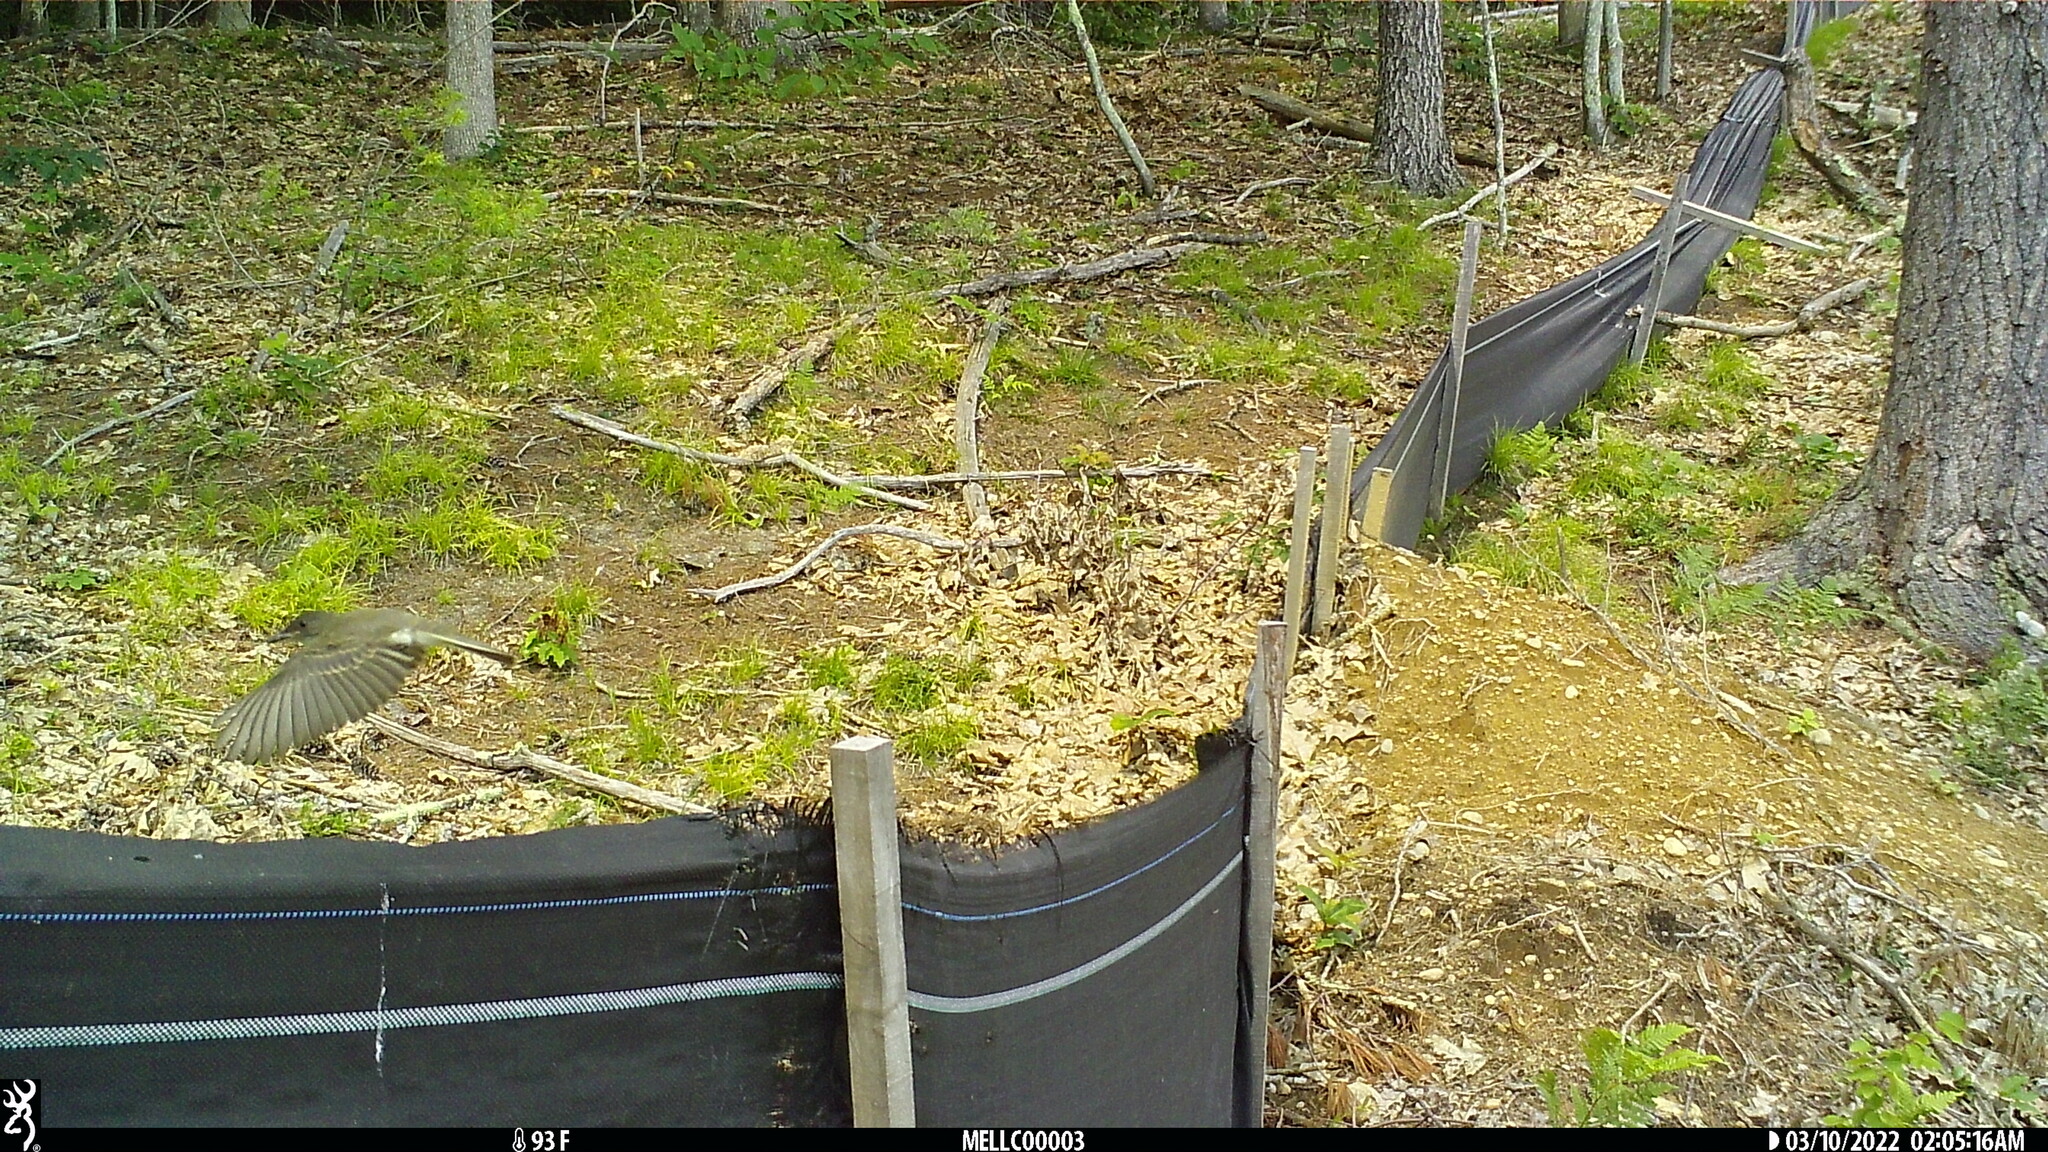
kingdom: Animalia
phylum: Chordata
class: Aves
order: Passeriformes
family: Tyrannidae
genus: Sayornis
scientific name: Sayornis phoebe
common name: Eastern phoebe
